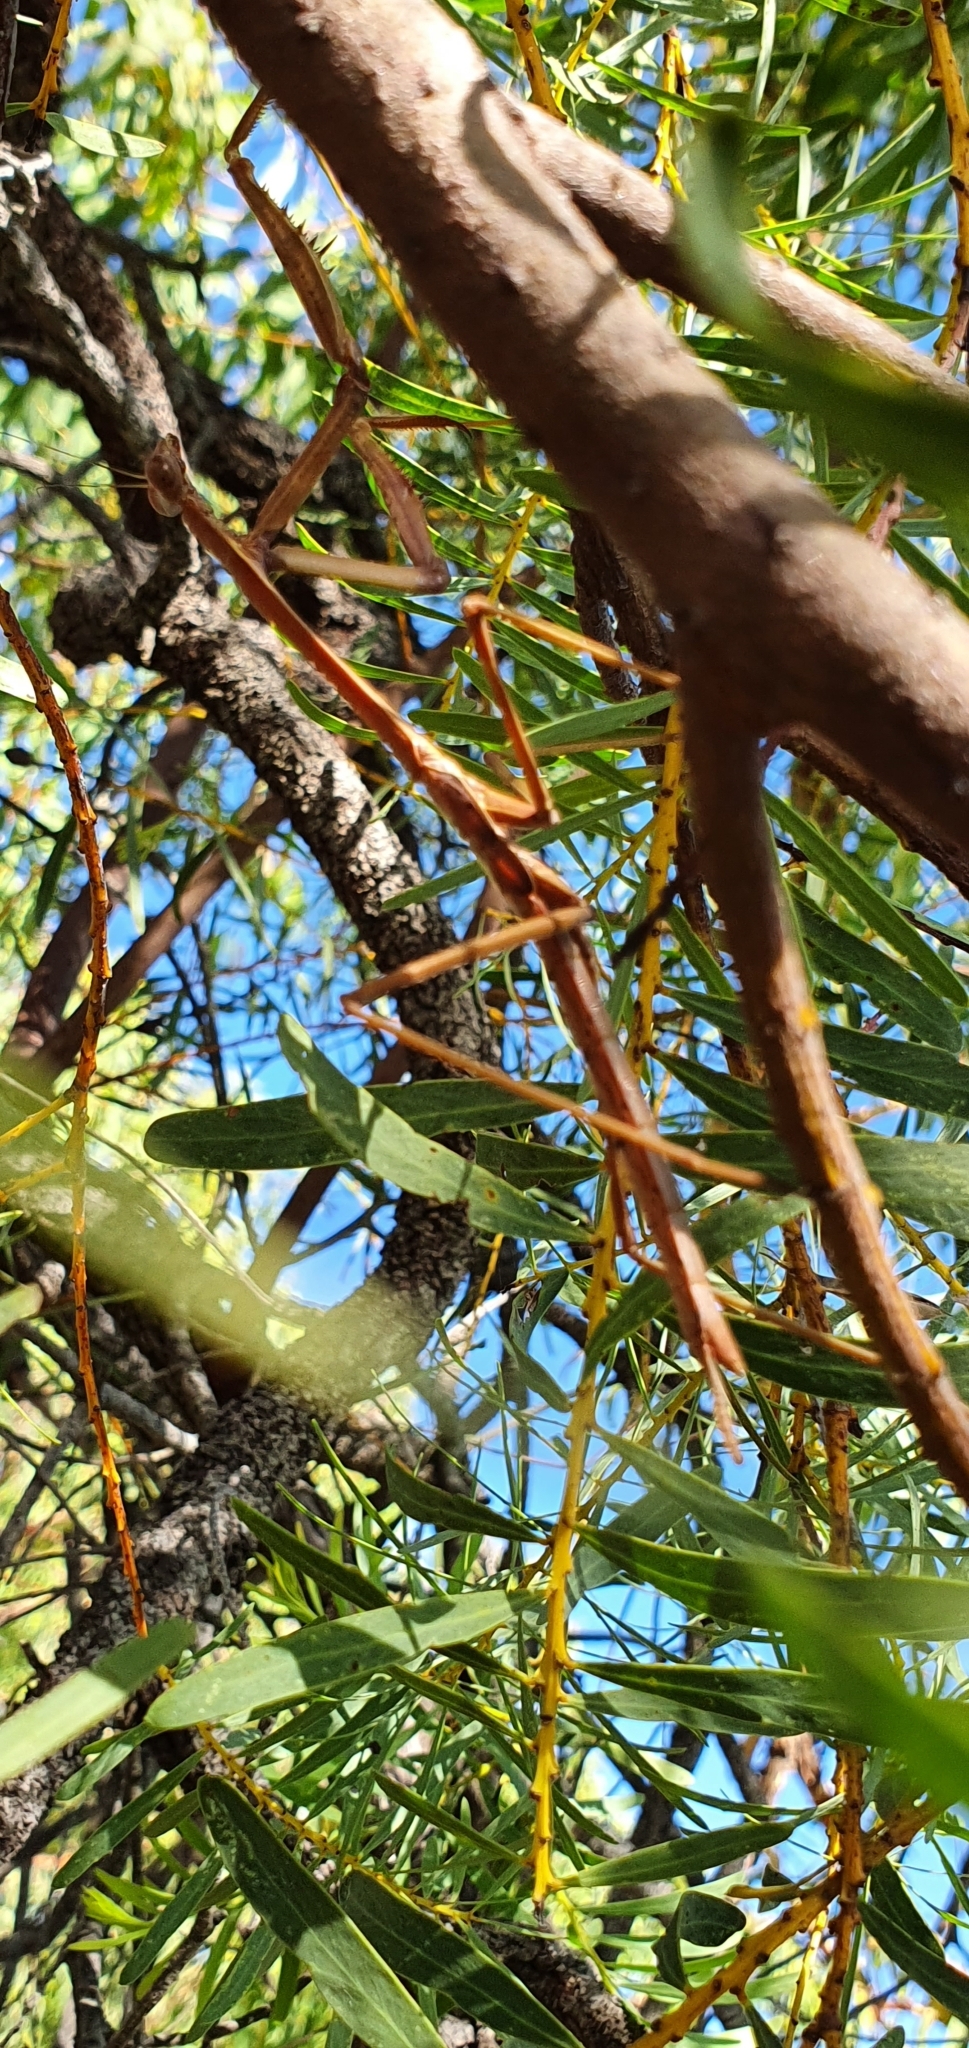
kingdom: Animalia
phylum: Arthropoda
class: Insecta
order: Mantodea
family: Mantidae
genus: Archimantis
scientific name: Archimantis latistyla
